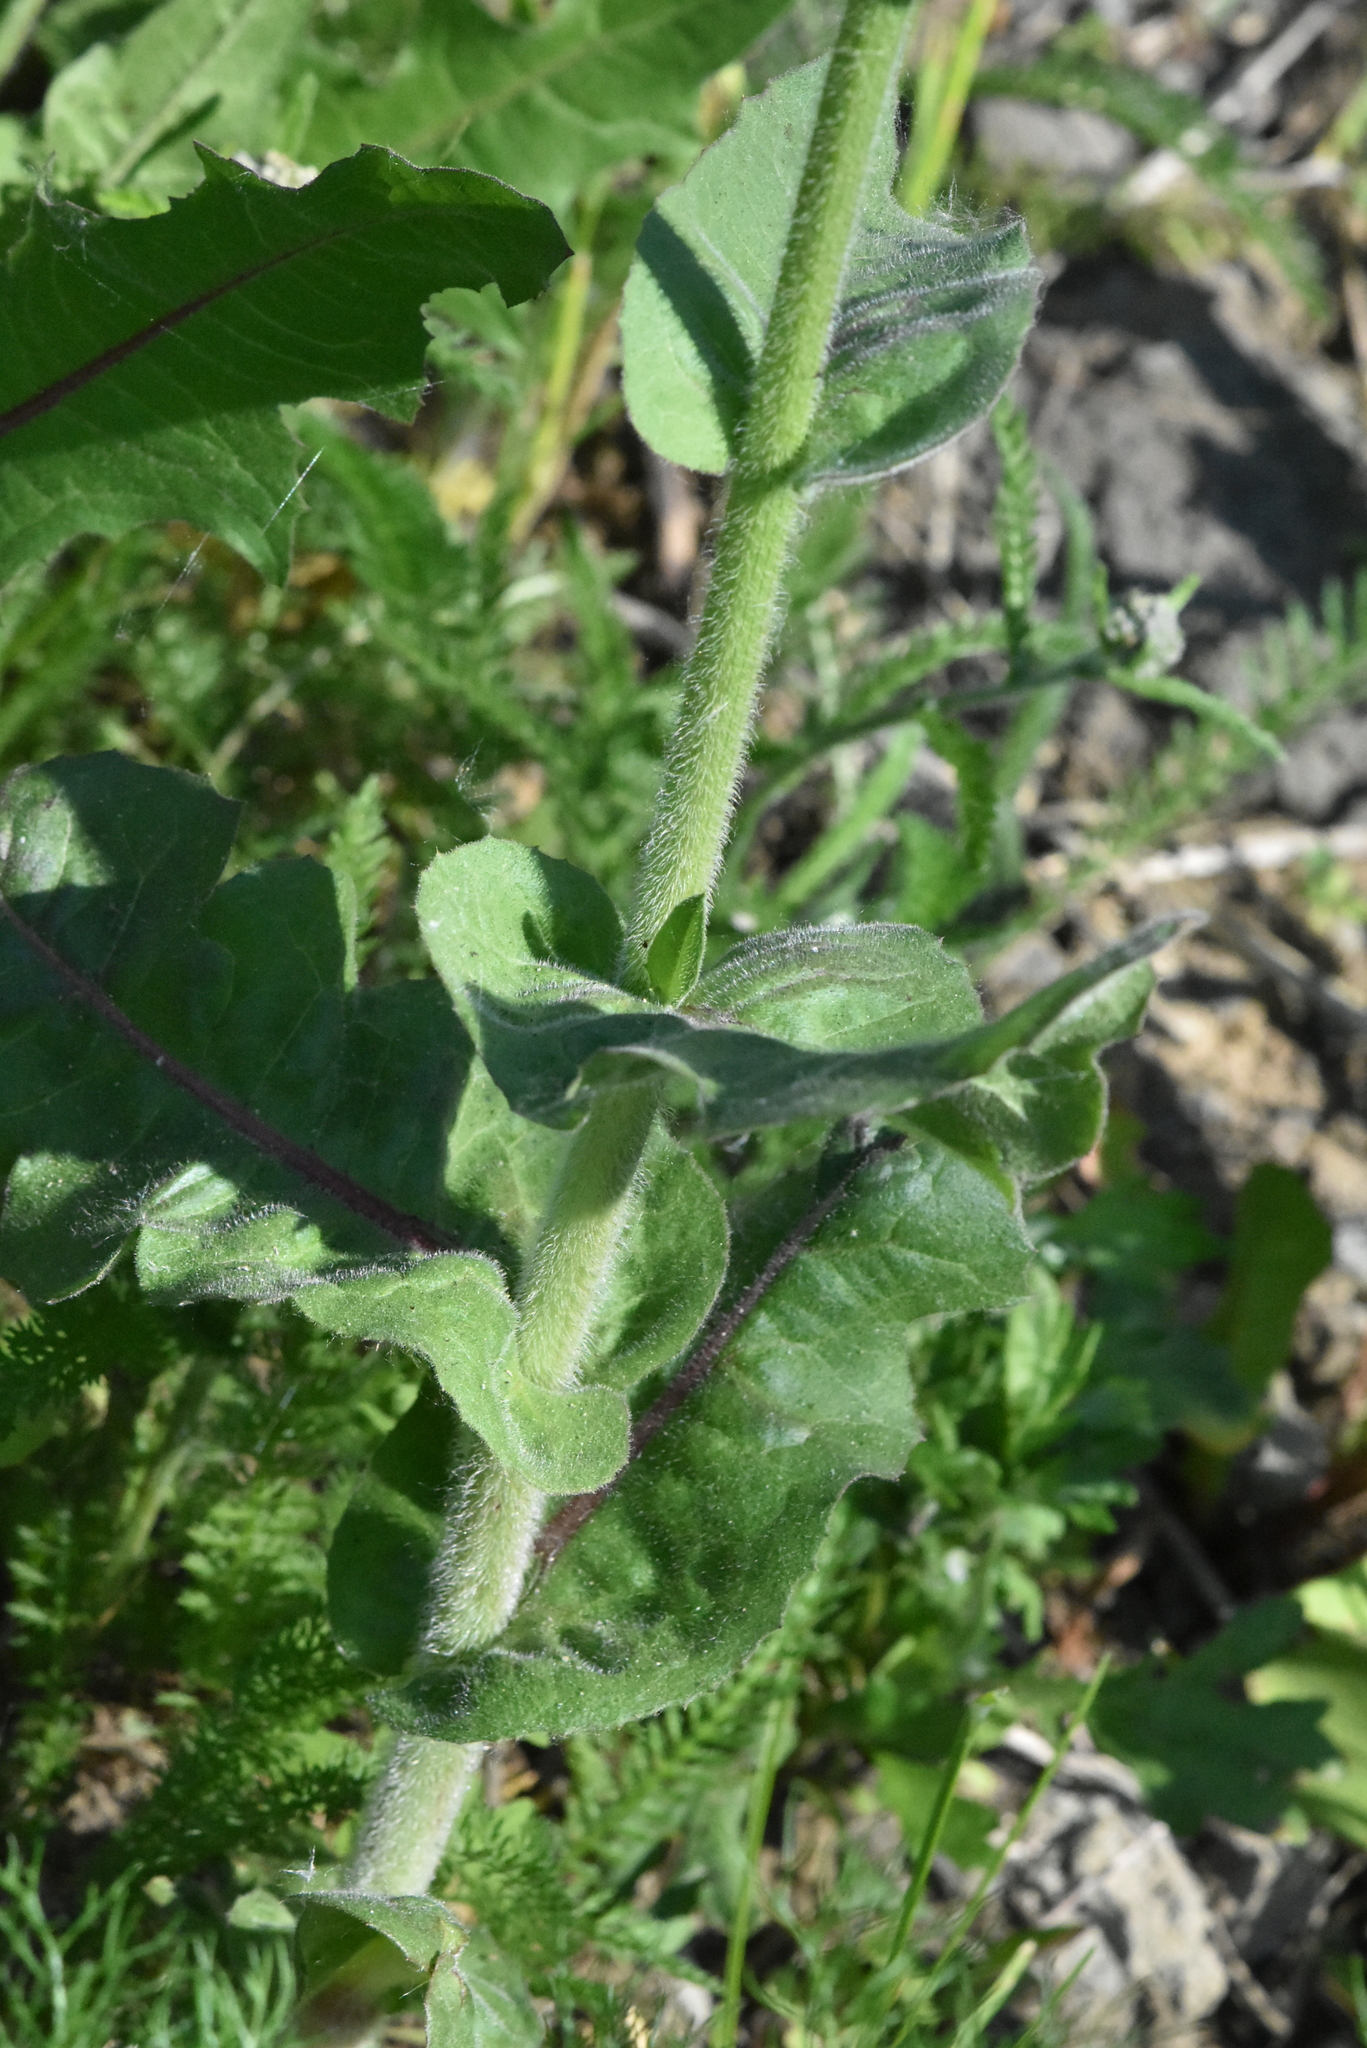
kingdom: Plantae
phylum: Tracheophyta
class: Magnoliopsida
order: Asterales
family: Asteraceae
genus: Cichorium
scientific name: Cichorium intybus
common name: Chicory
